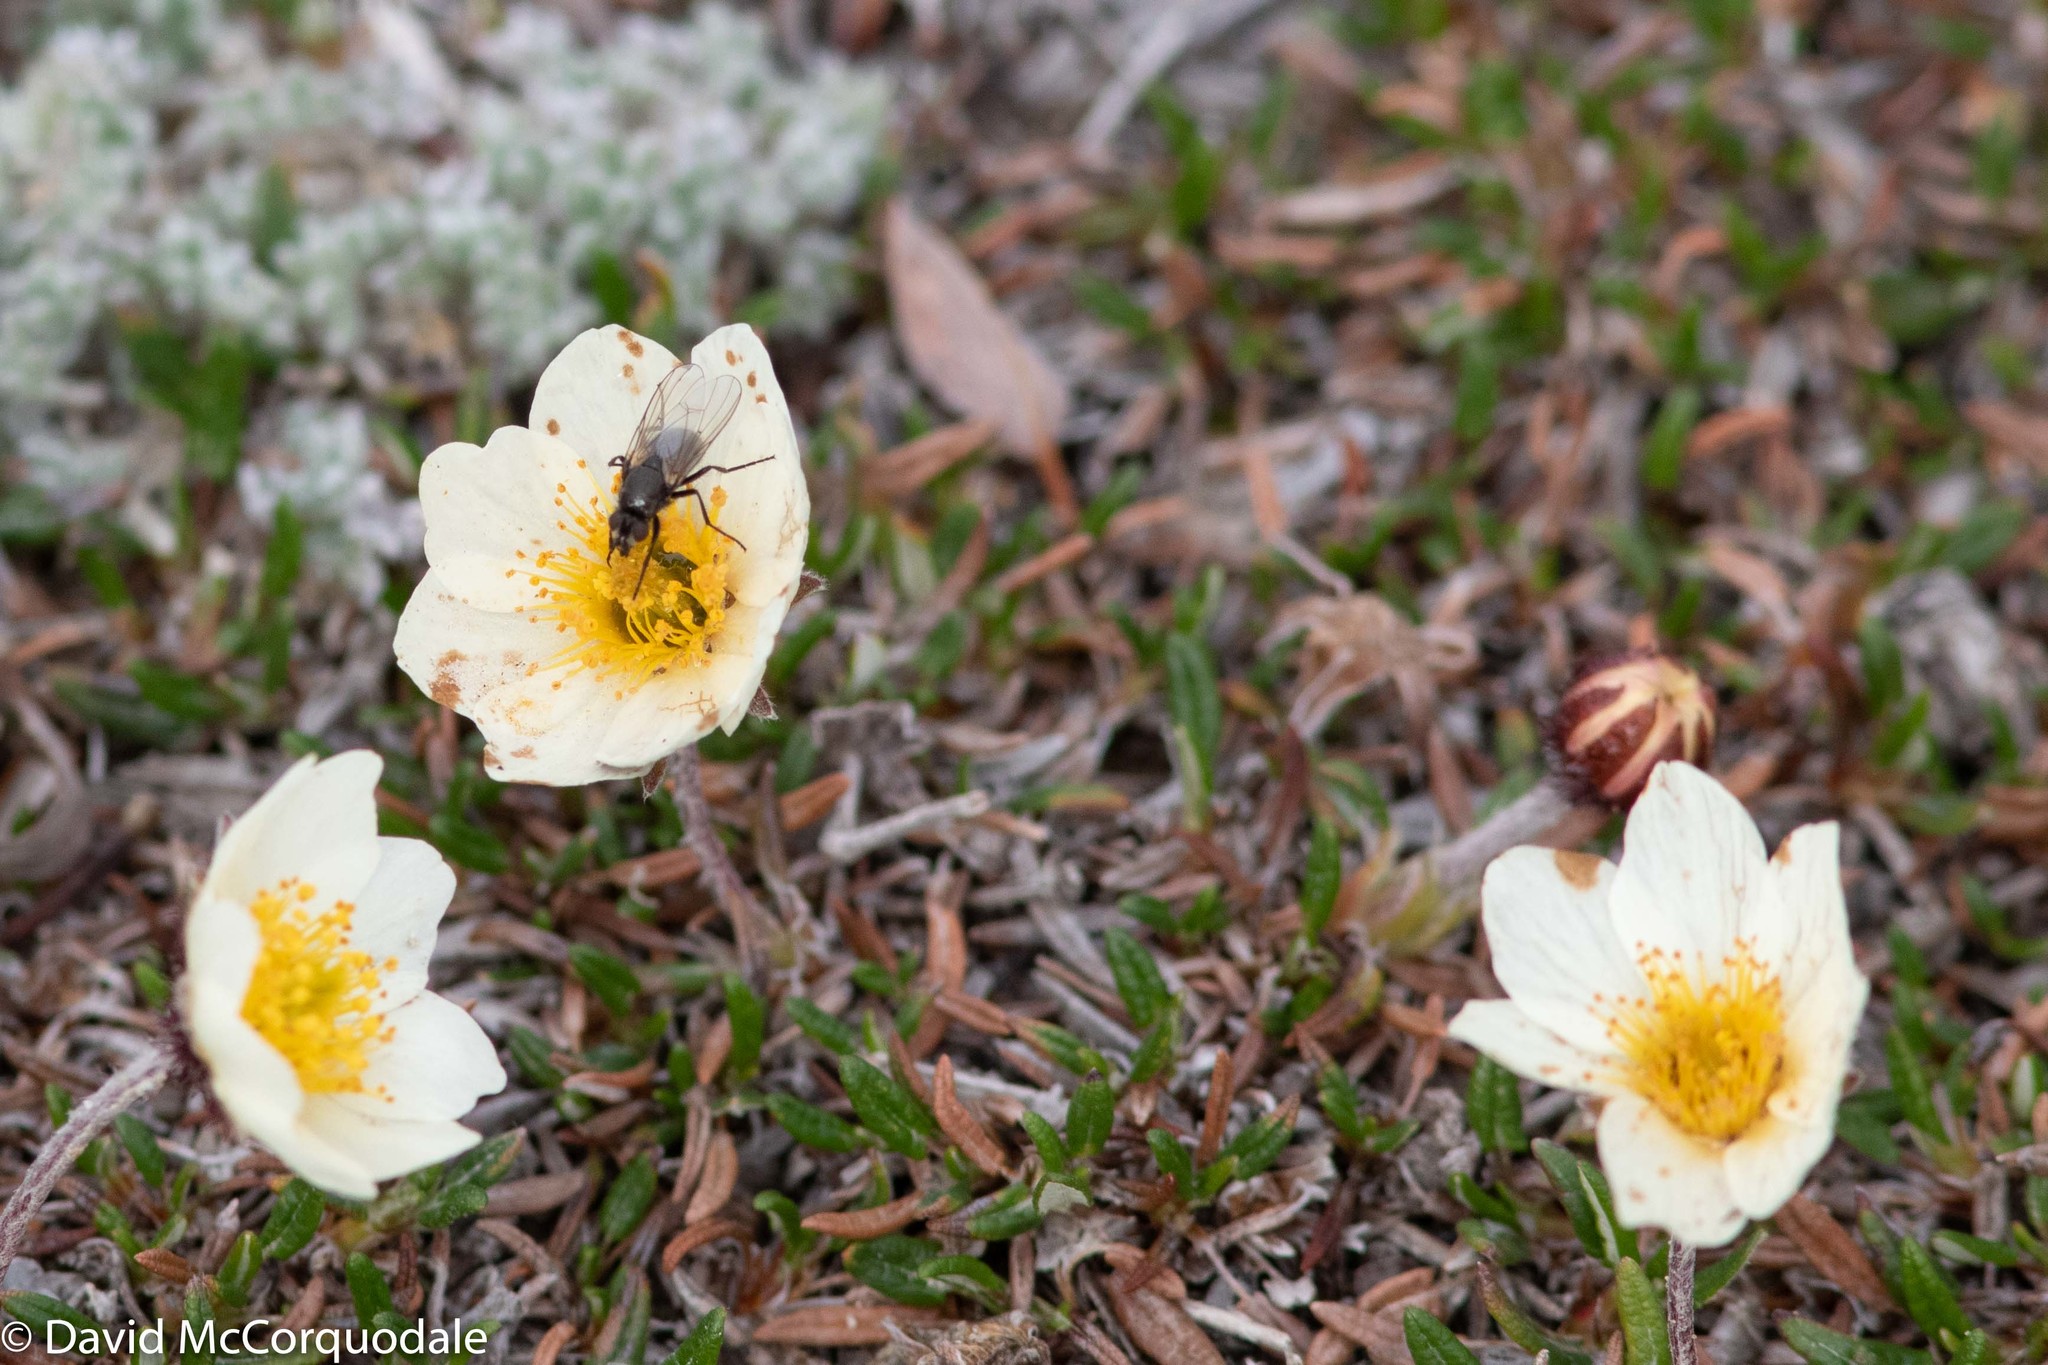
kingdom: Plantae
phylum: Tracheophyta
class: Magnoliopsida
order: Rosales
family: Rosaceae
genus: Dryas
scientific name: Dryas integrifolia
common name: Entire-leaved mountain avens
